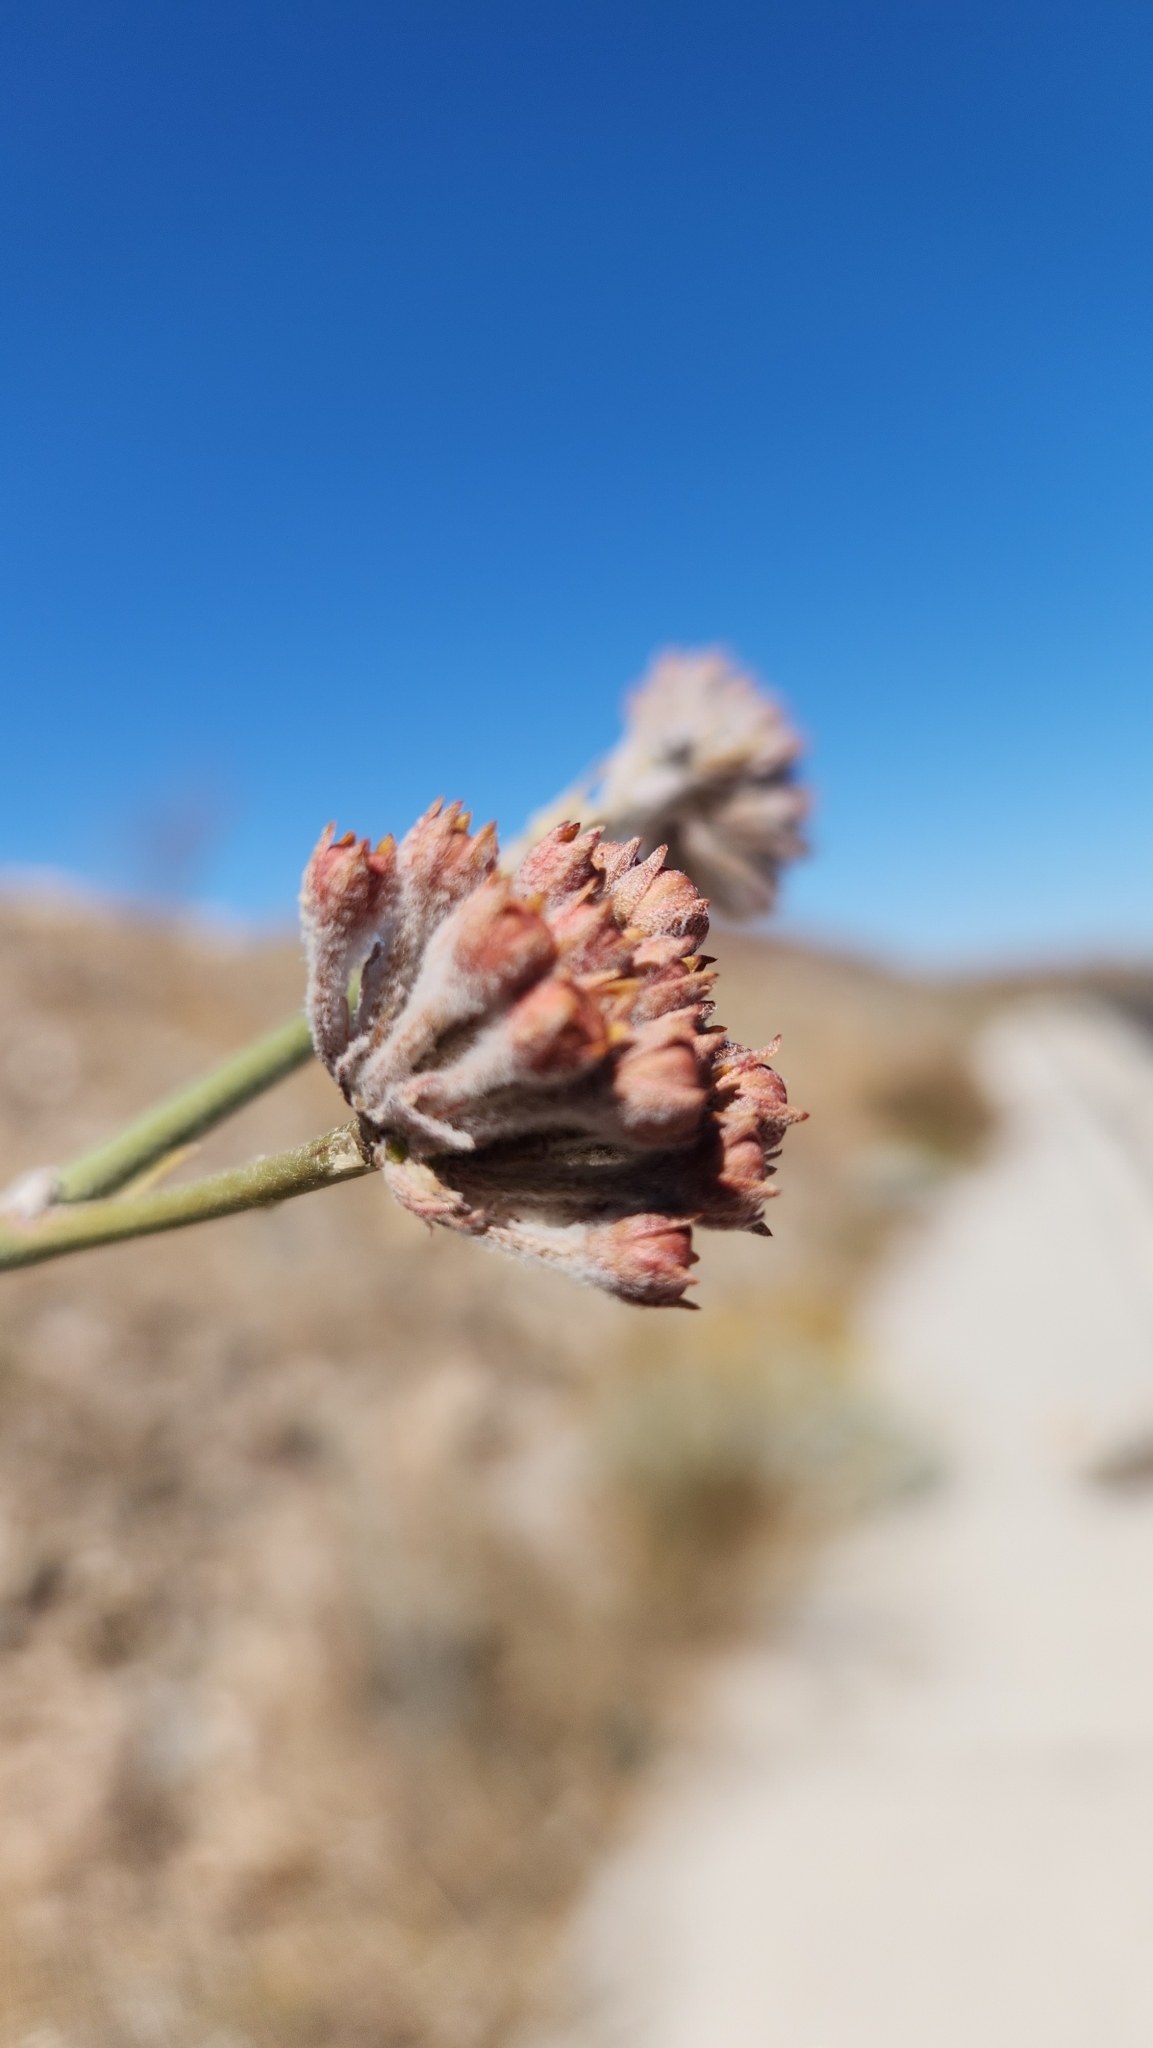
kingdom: Plantae
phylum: Tracheophyta
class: Magnoliopsida
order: Gentianales
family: Apocynaceae
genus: Asclepias
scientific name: Asclepias albicans
